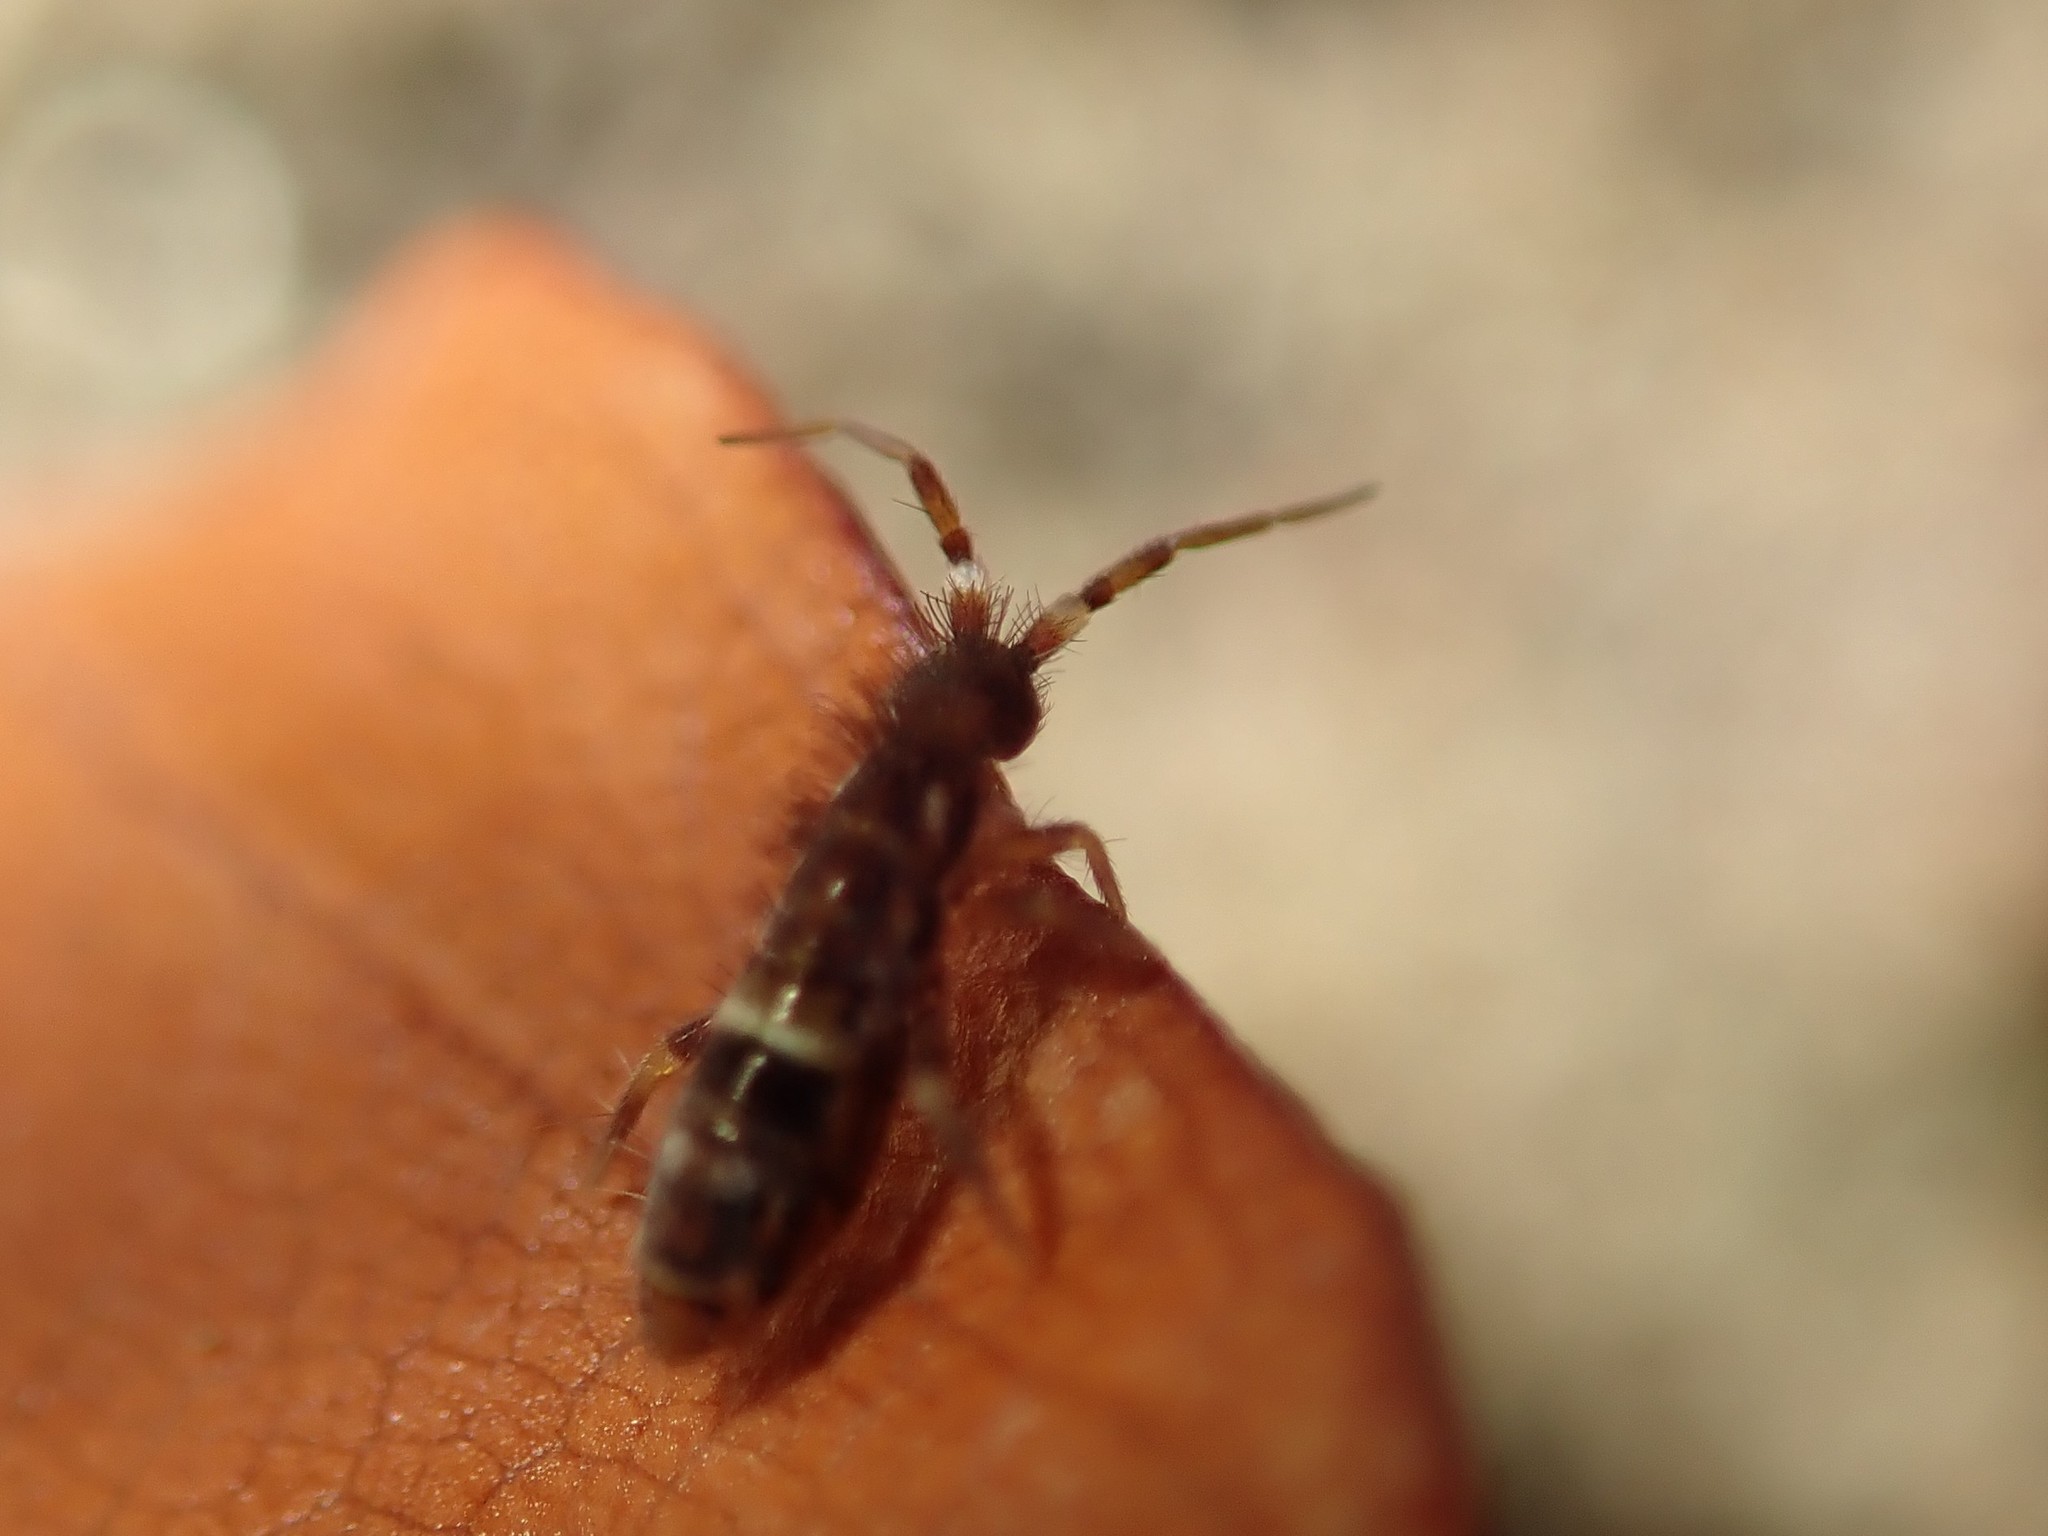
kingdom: Animalia
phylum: Arthropoda
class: Collembola
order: Entomobryomorpha
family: Orchesellidae
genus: Orchesella
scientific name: Orchesella cincta
